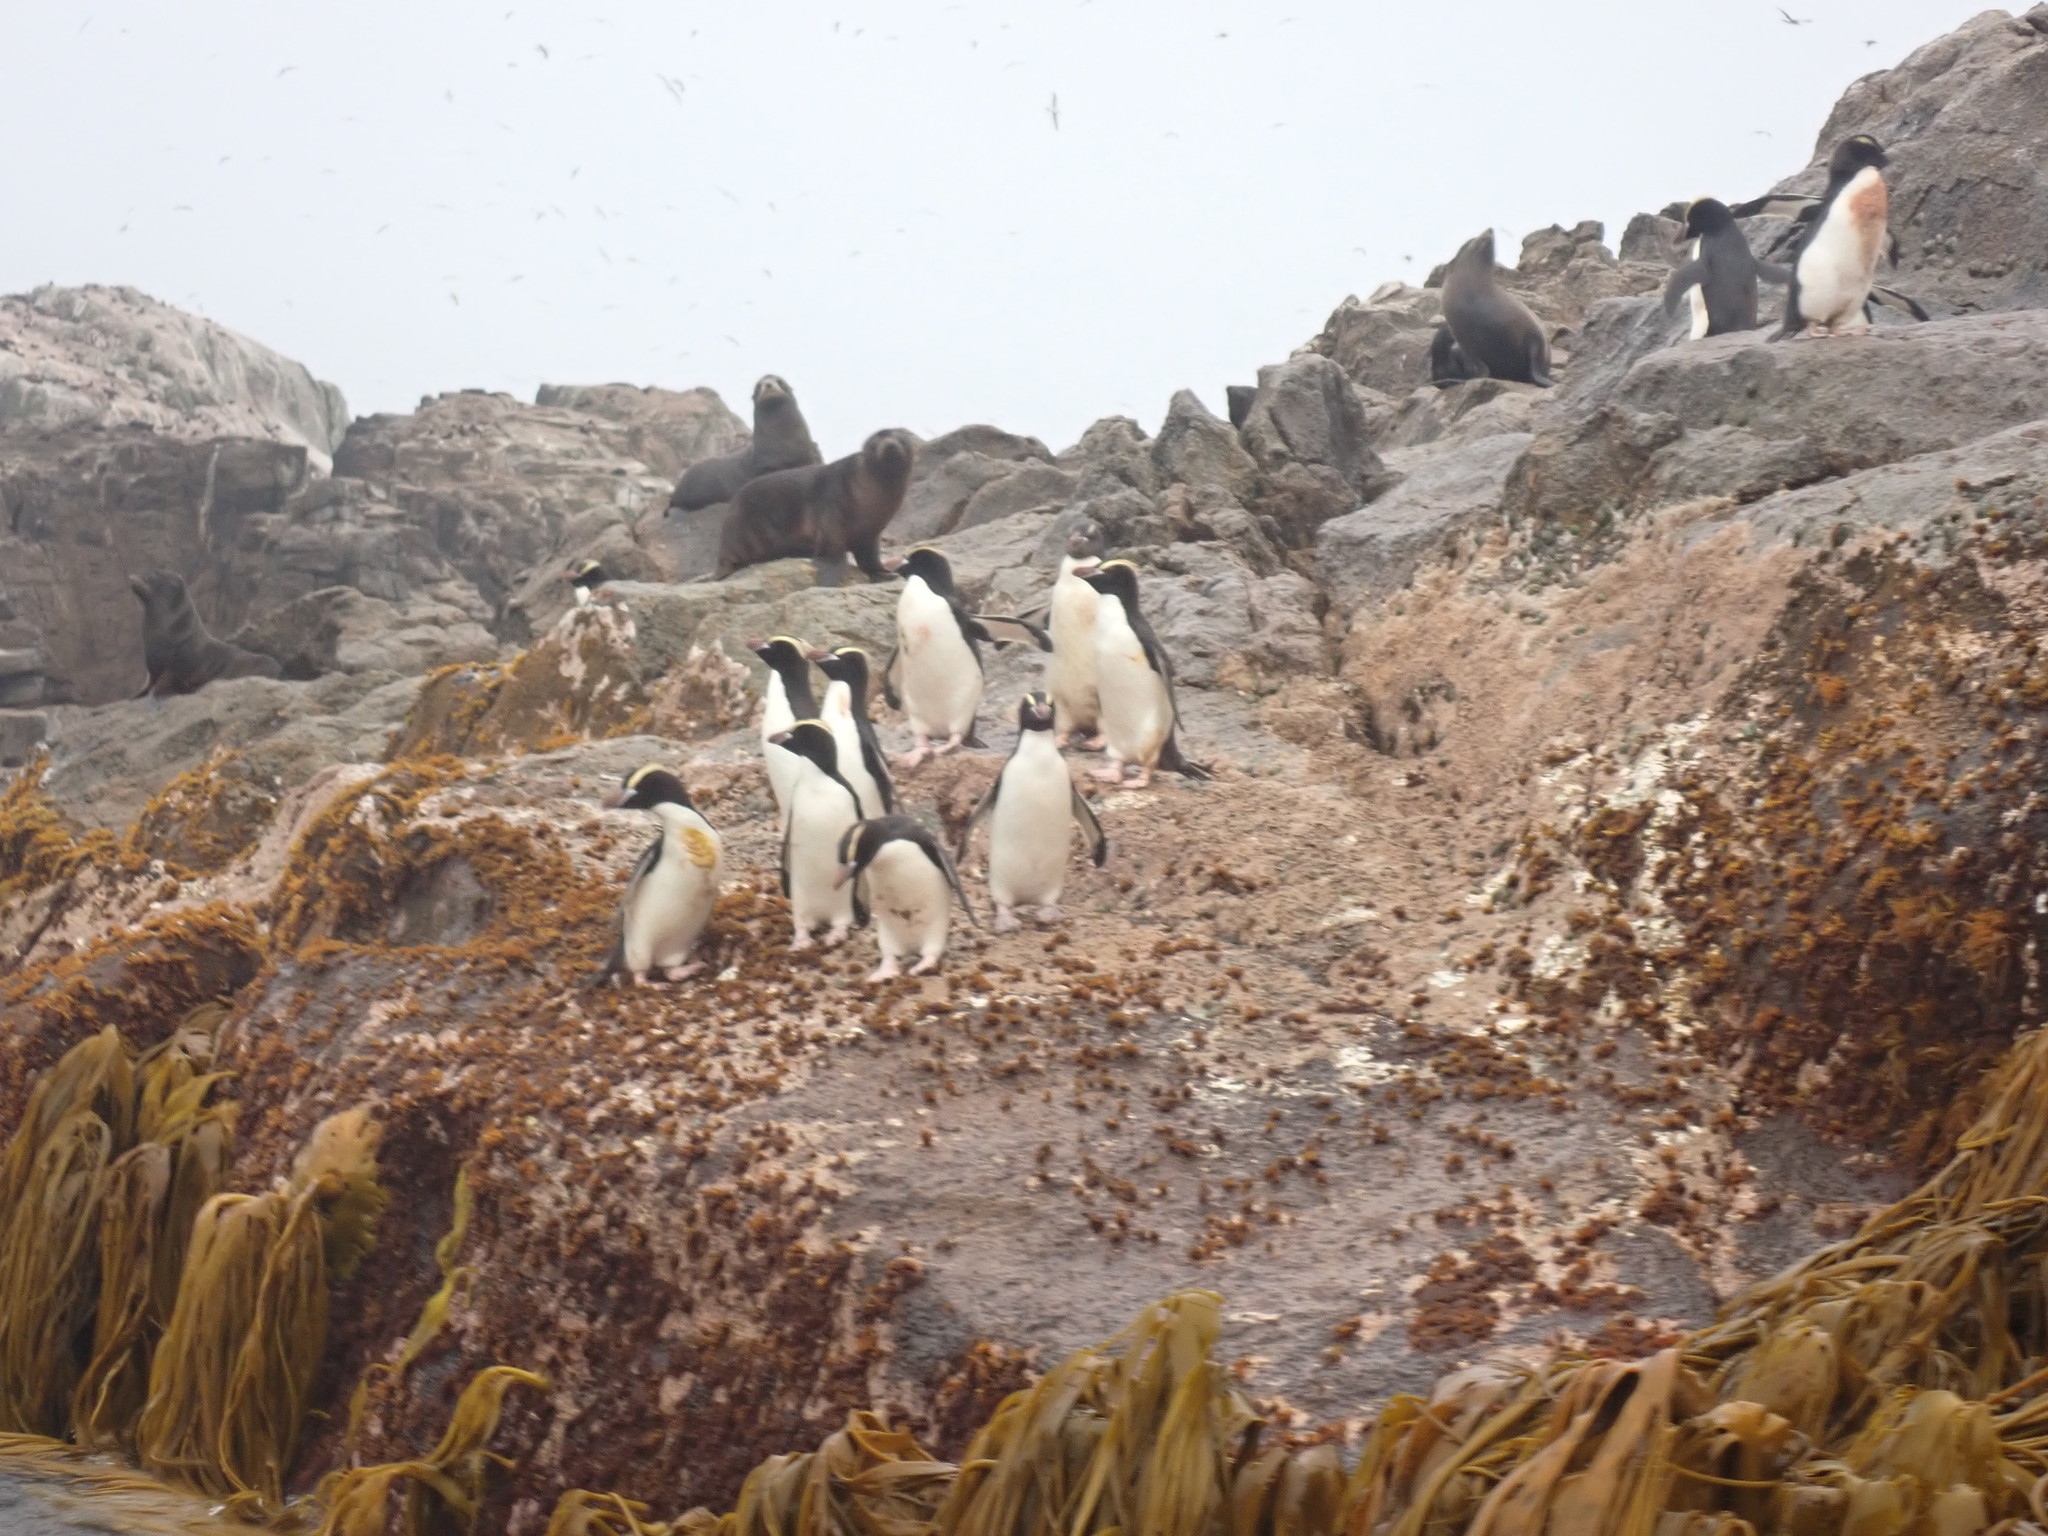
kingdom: Animalia
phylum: Chordata
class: Aves
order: Sphenisciformes
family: Spheniscidae
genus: Eudyptes
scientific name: Eudyptes sclateri
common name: Erect-crested penguin
